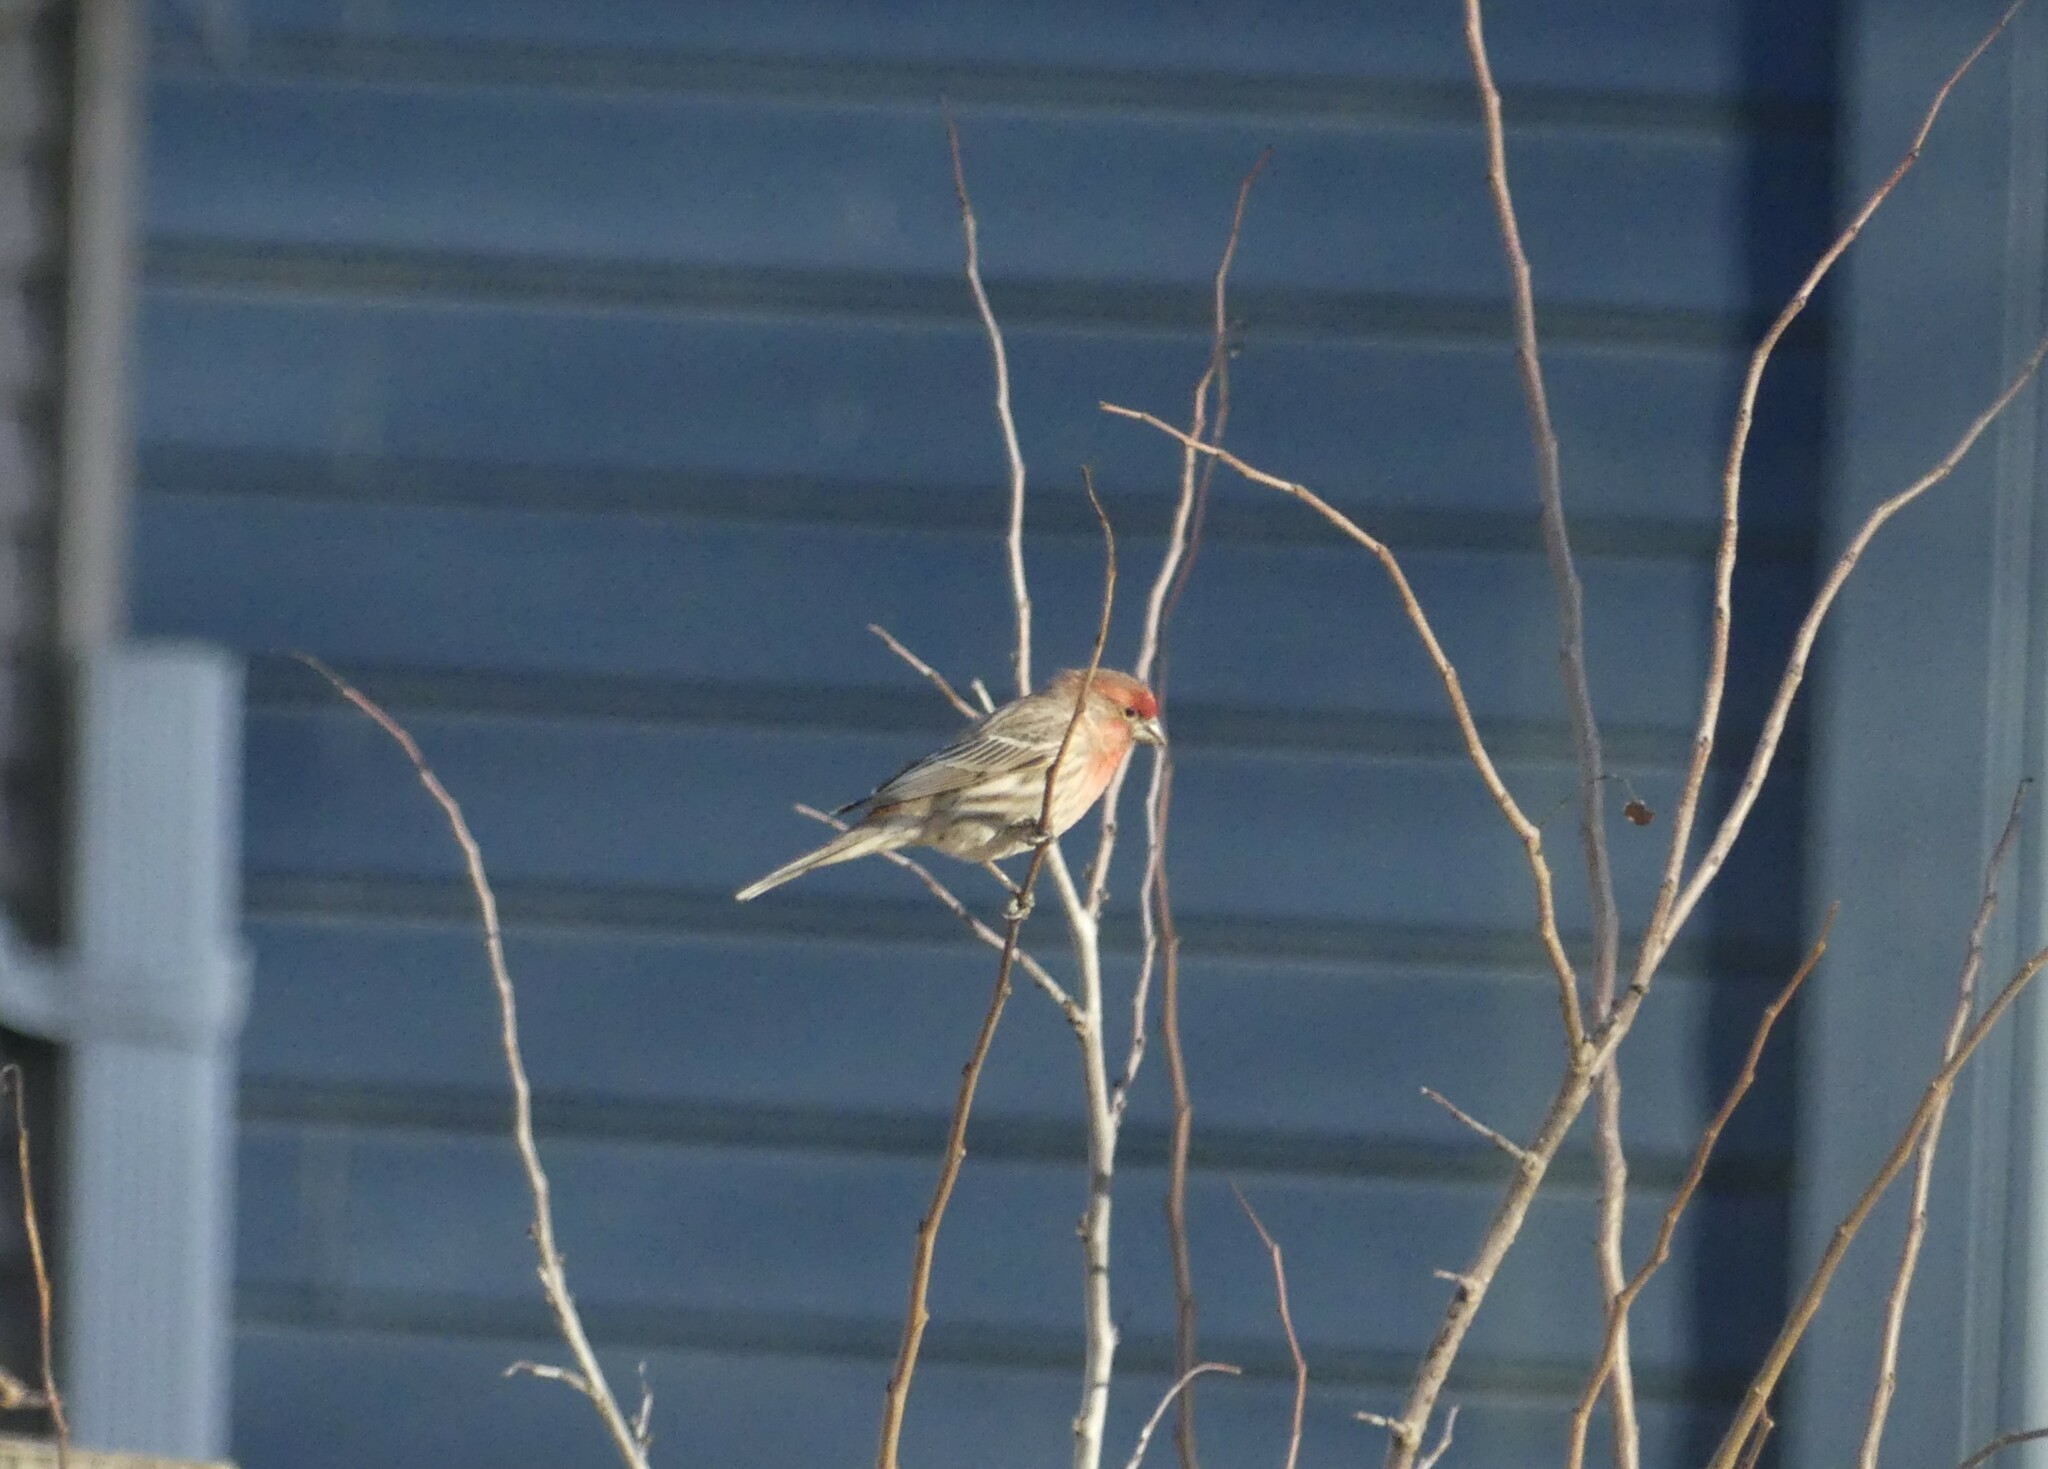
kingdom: Animalia
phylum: Chordata
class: Aves
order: Passeriformes
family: Fringillidae
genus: Haemorhous
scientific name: Haemorhous mexicanus
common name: House finch
